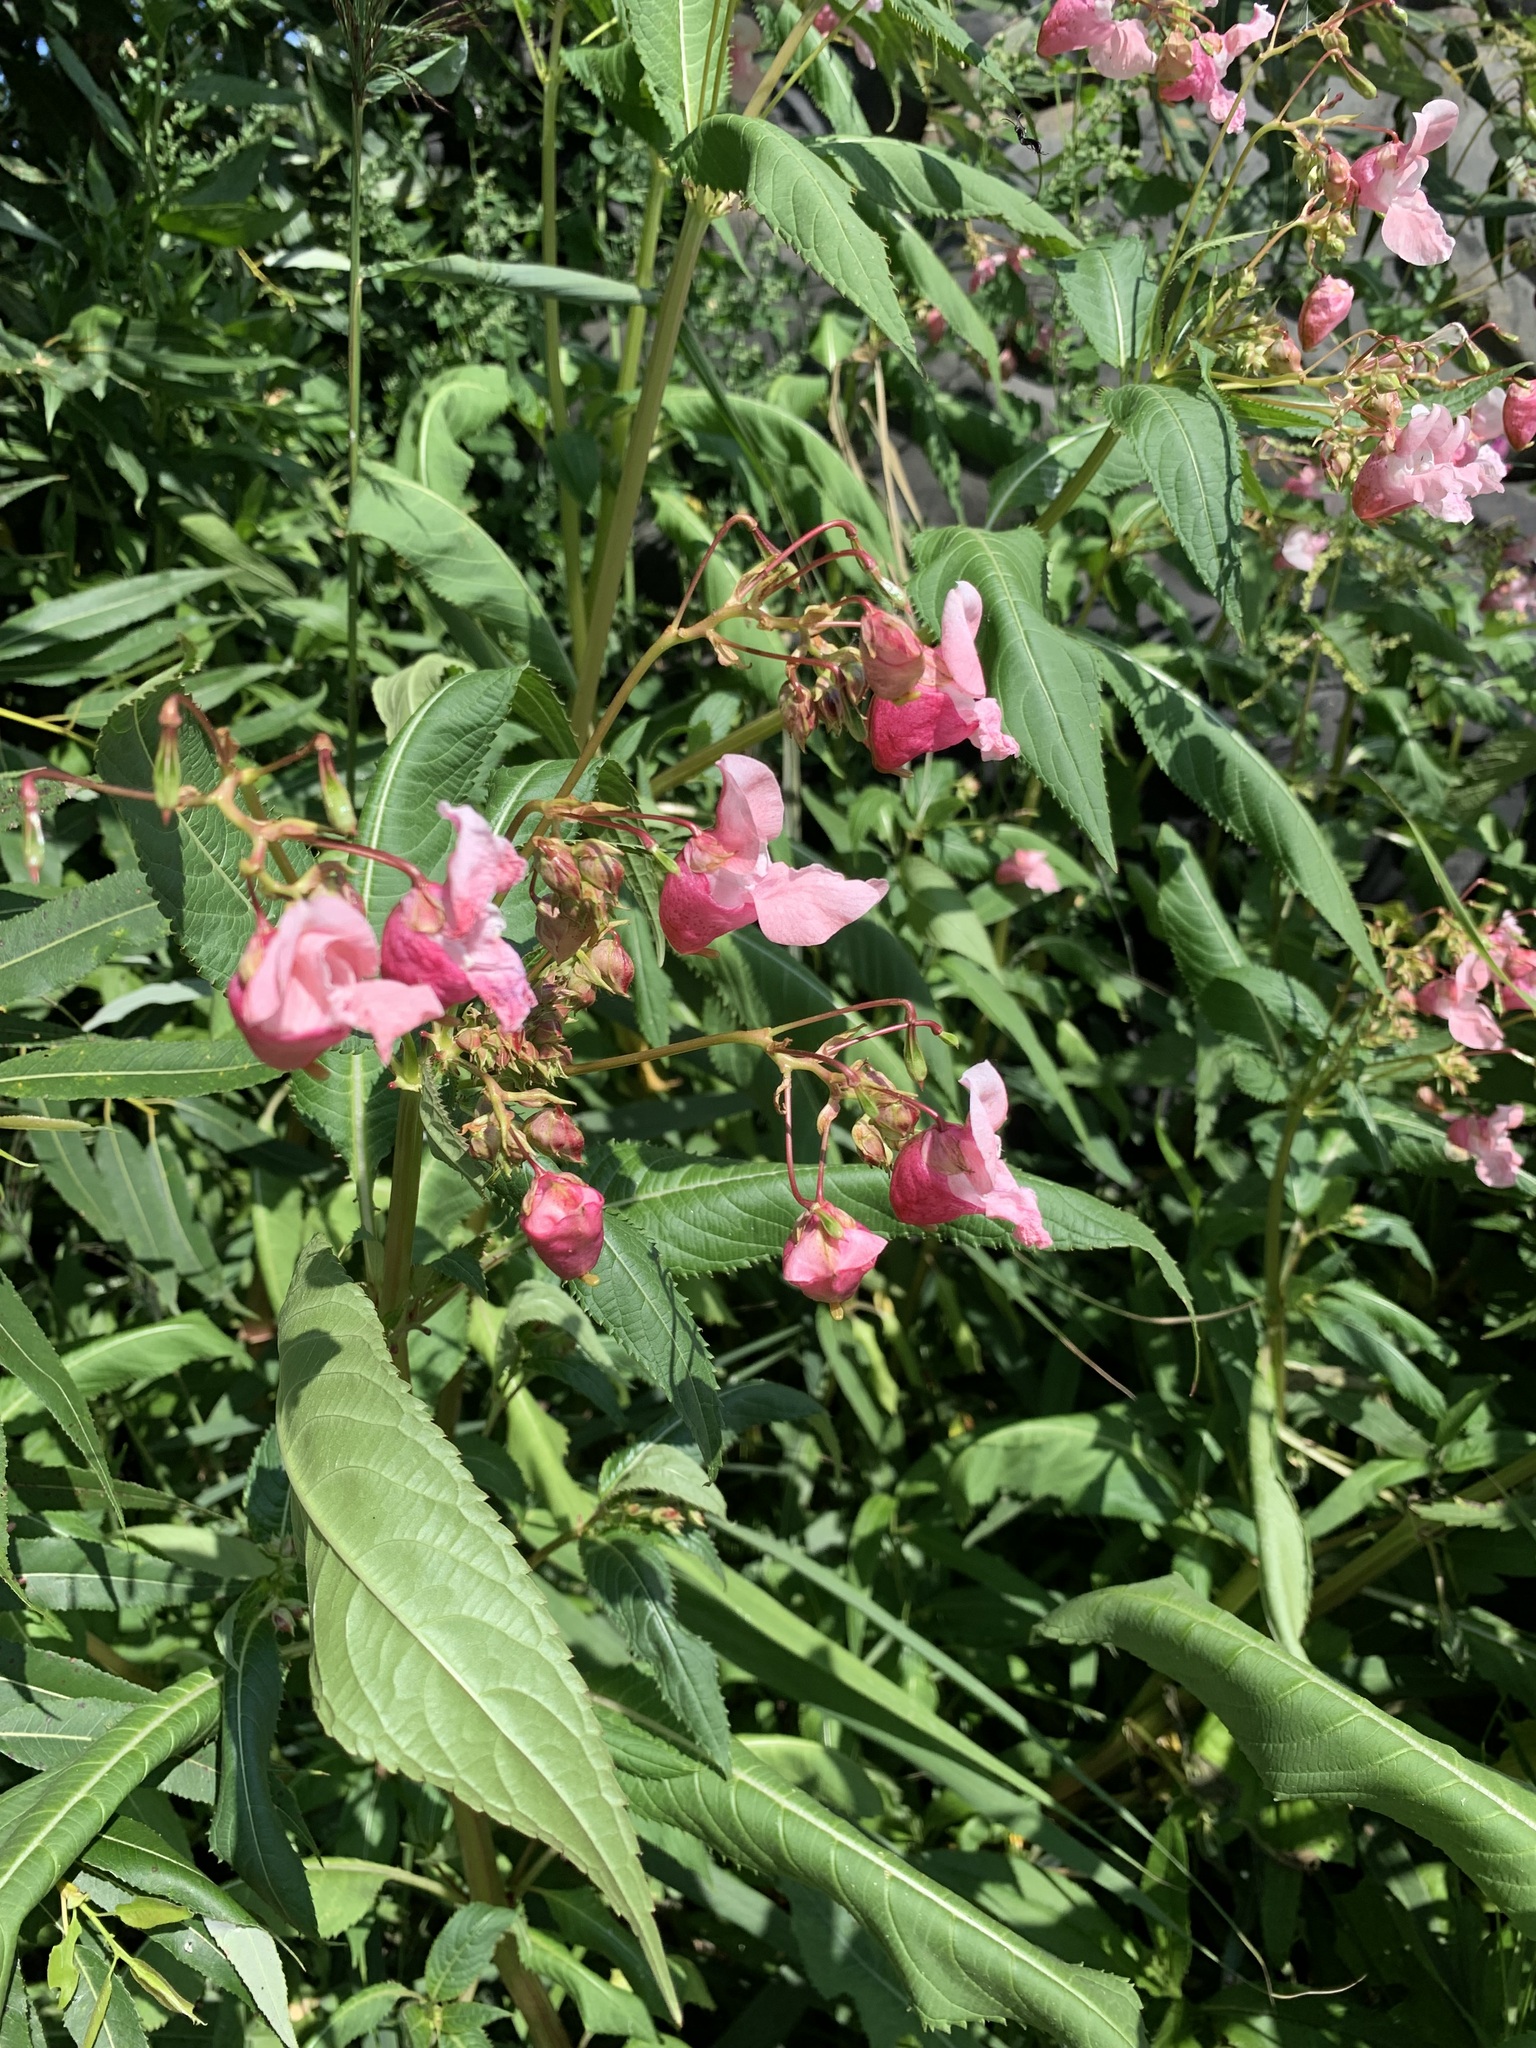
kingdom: Plantae
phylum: Tracheophyta
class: Magnoliopsida
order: Ericales
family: Balsaminaceae
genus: Impatiens
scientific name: Impatiens glandulifera
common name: Himalayan balsam
